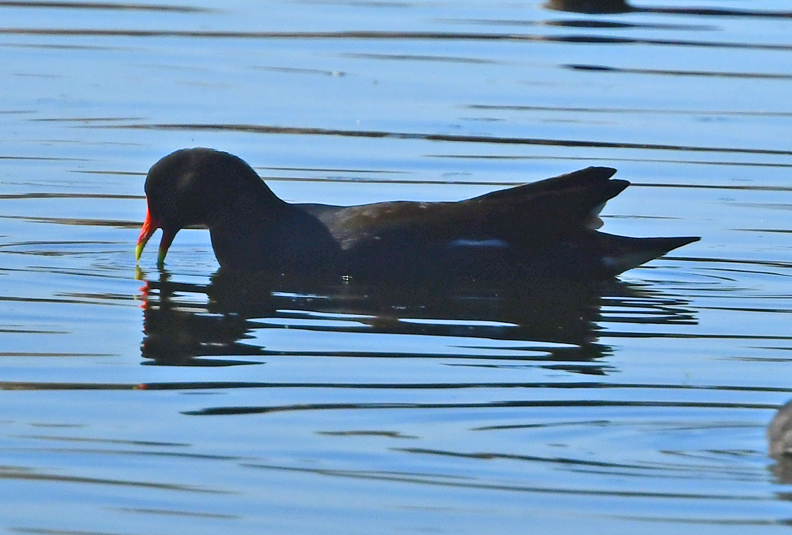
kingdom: Animalia
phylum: Chordata
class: Aves
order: Gruiformes
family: Rallidae
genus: Gallinula
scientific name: Gallinula chloropus
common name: Common moorhen
